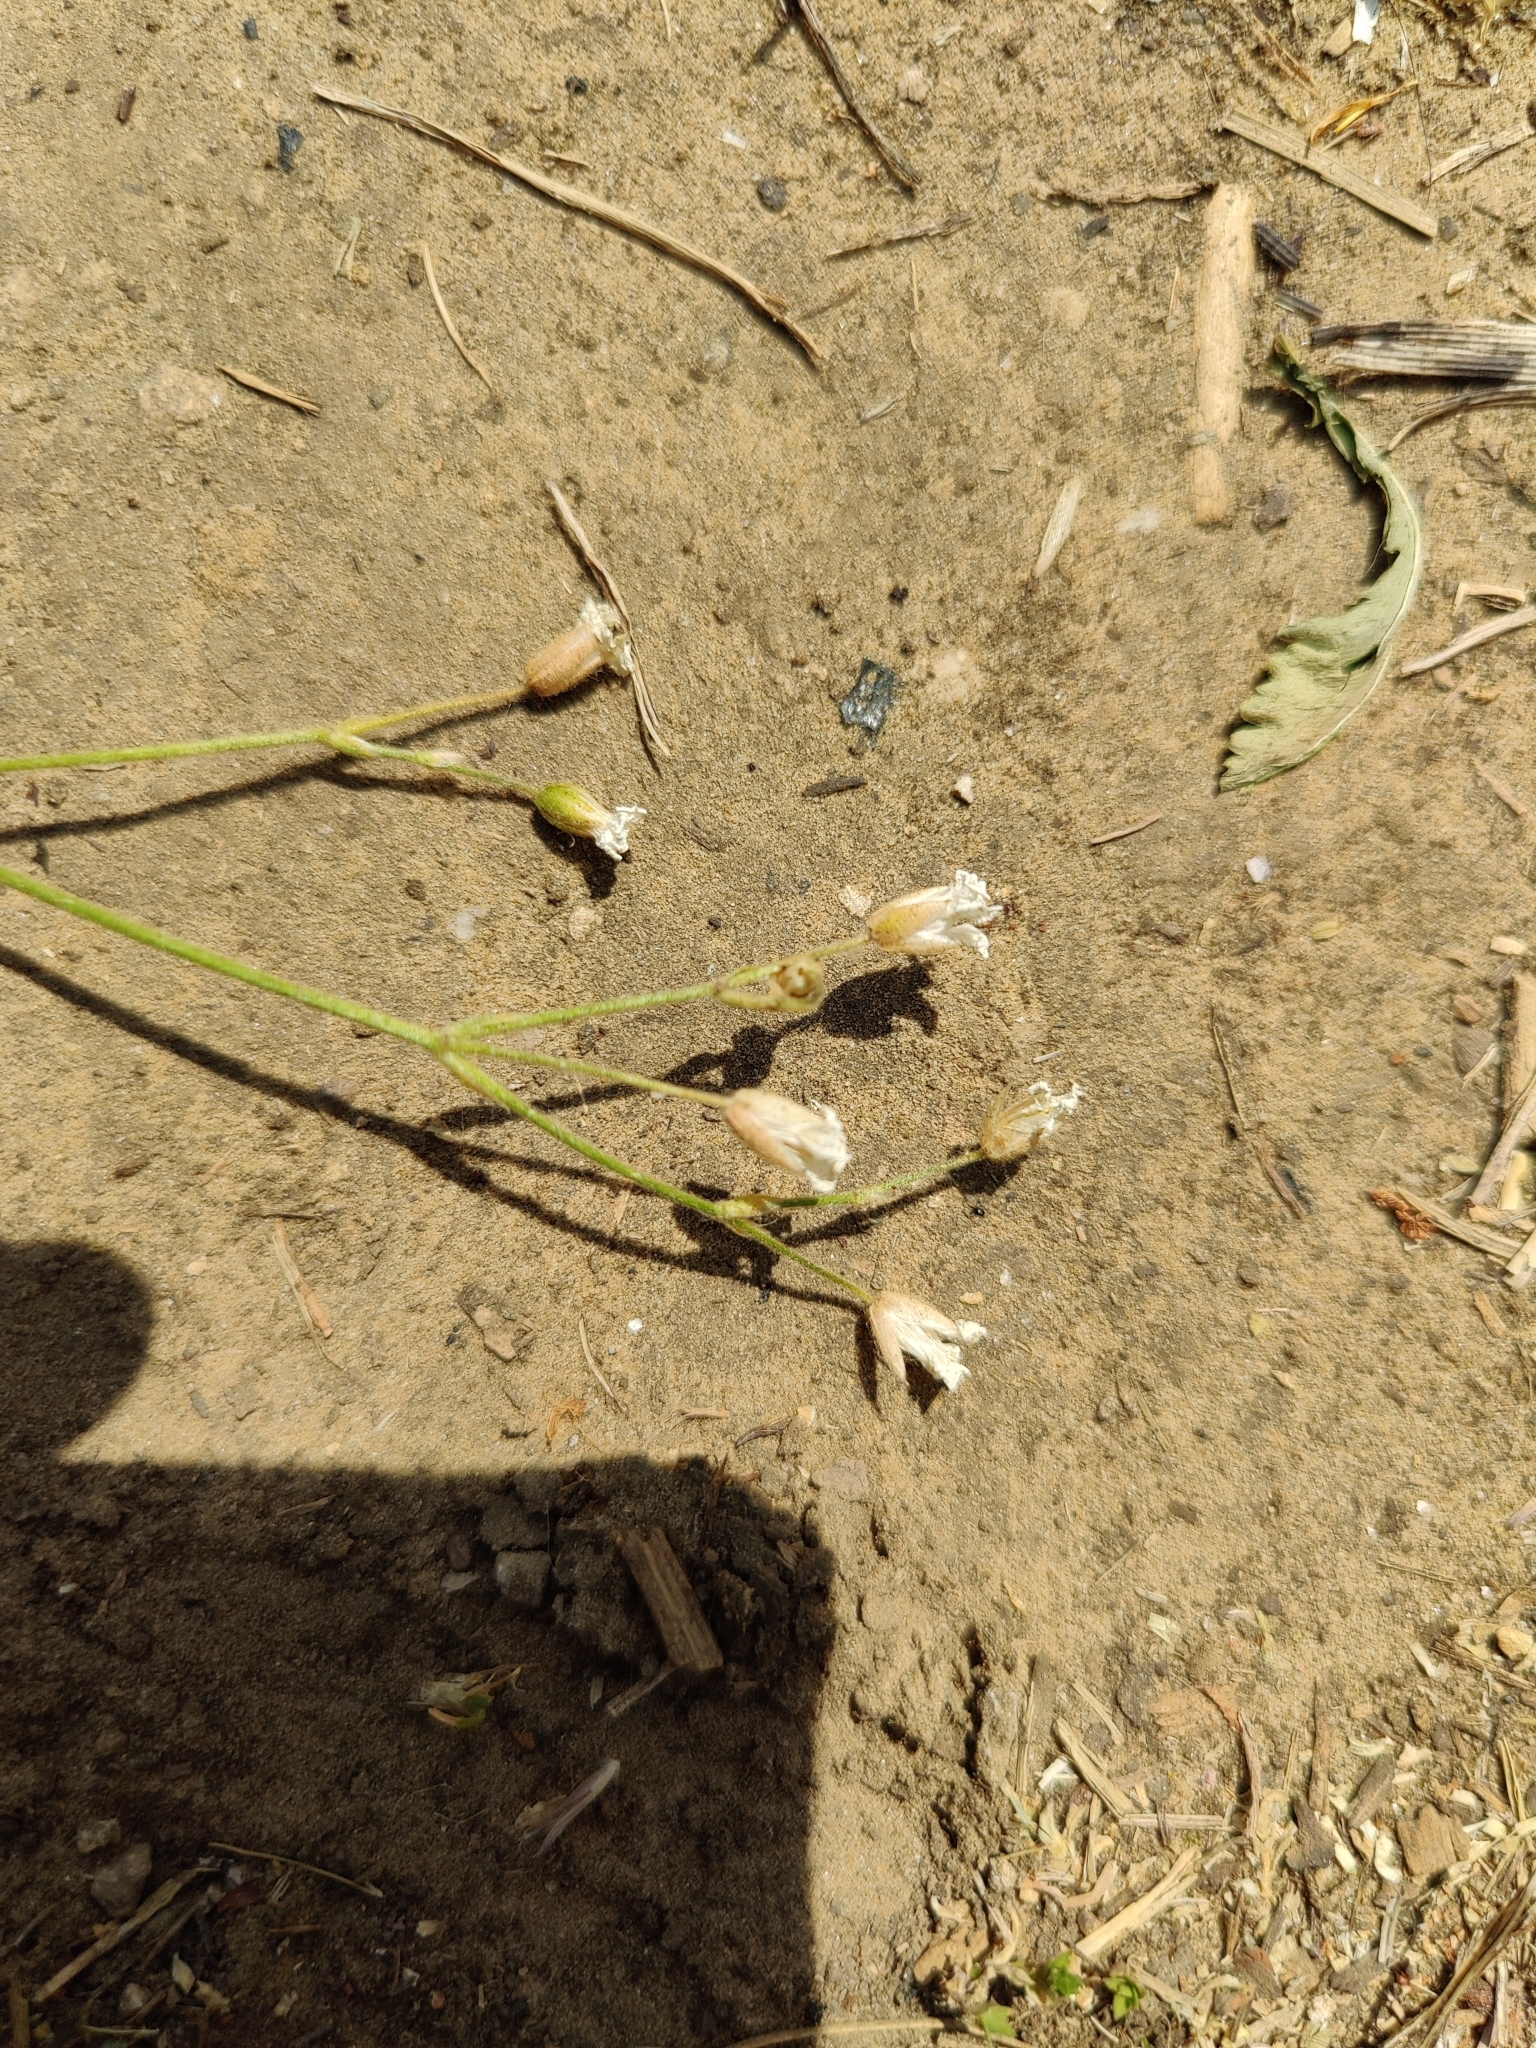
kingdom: Plantae
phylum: Tracheophyta
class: Magnoliopsida
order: Caryophyllales
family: Caryophyllaceae
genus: Cerastium
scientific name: Cerastium arvense
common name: Field mouse-ear
